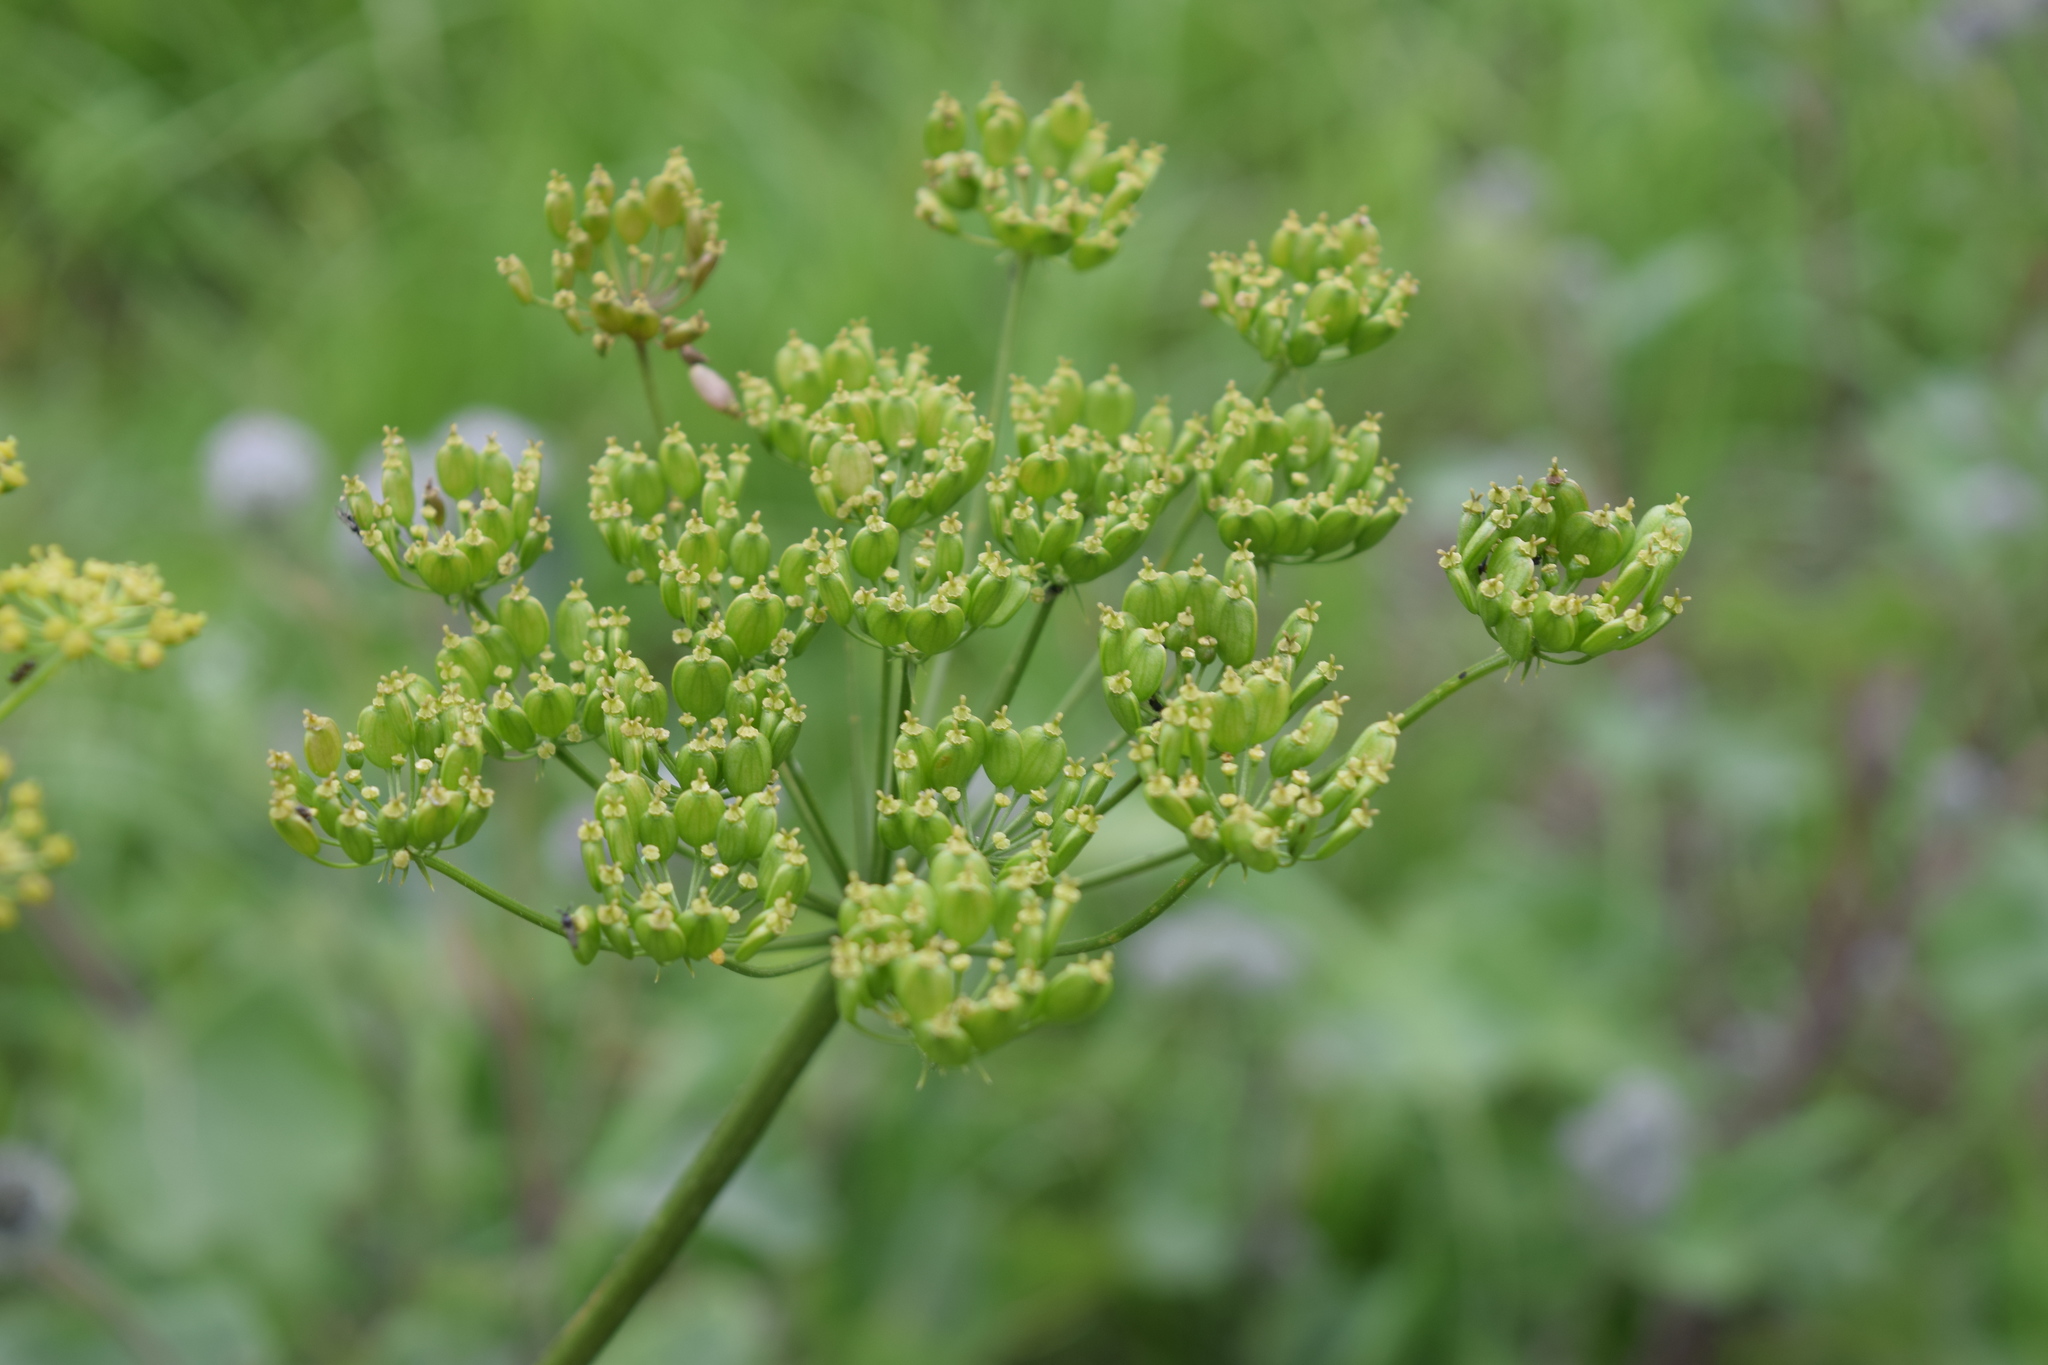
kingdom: Plantae
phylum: Tracheophyta
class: Magnoliopsida
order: Apiales
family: Apiaceae
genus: Heracleum
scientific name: Heracleum sphondylium
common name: Hogweed
